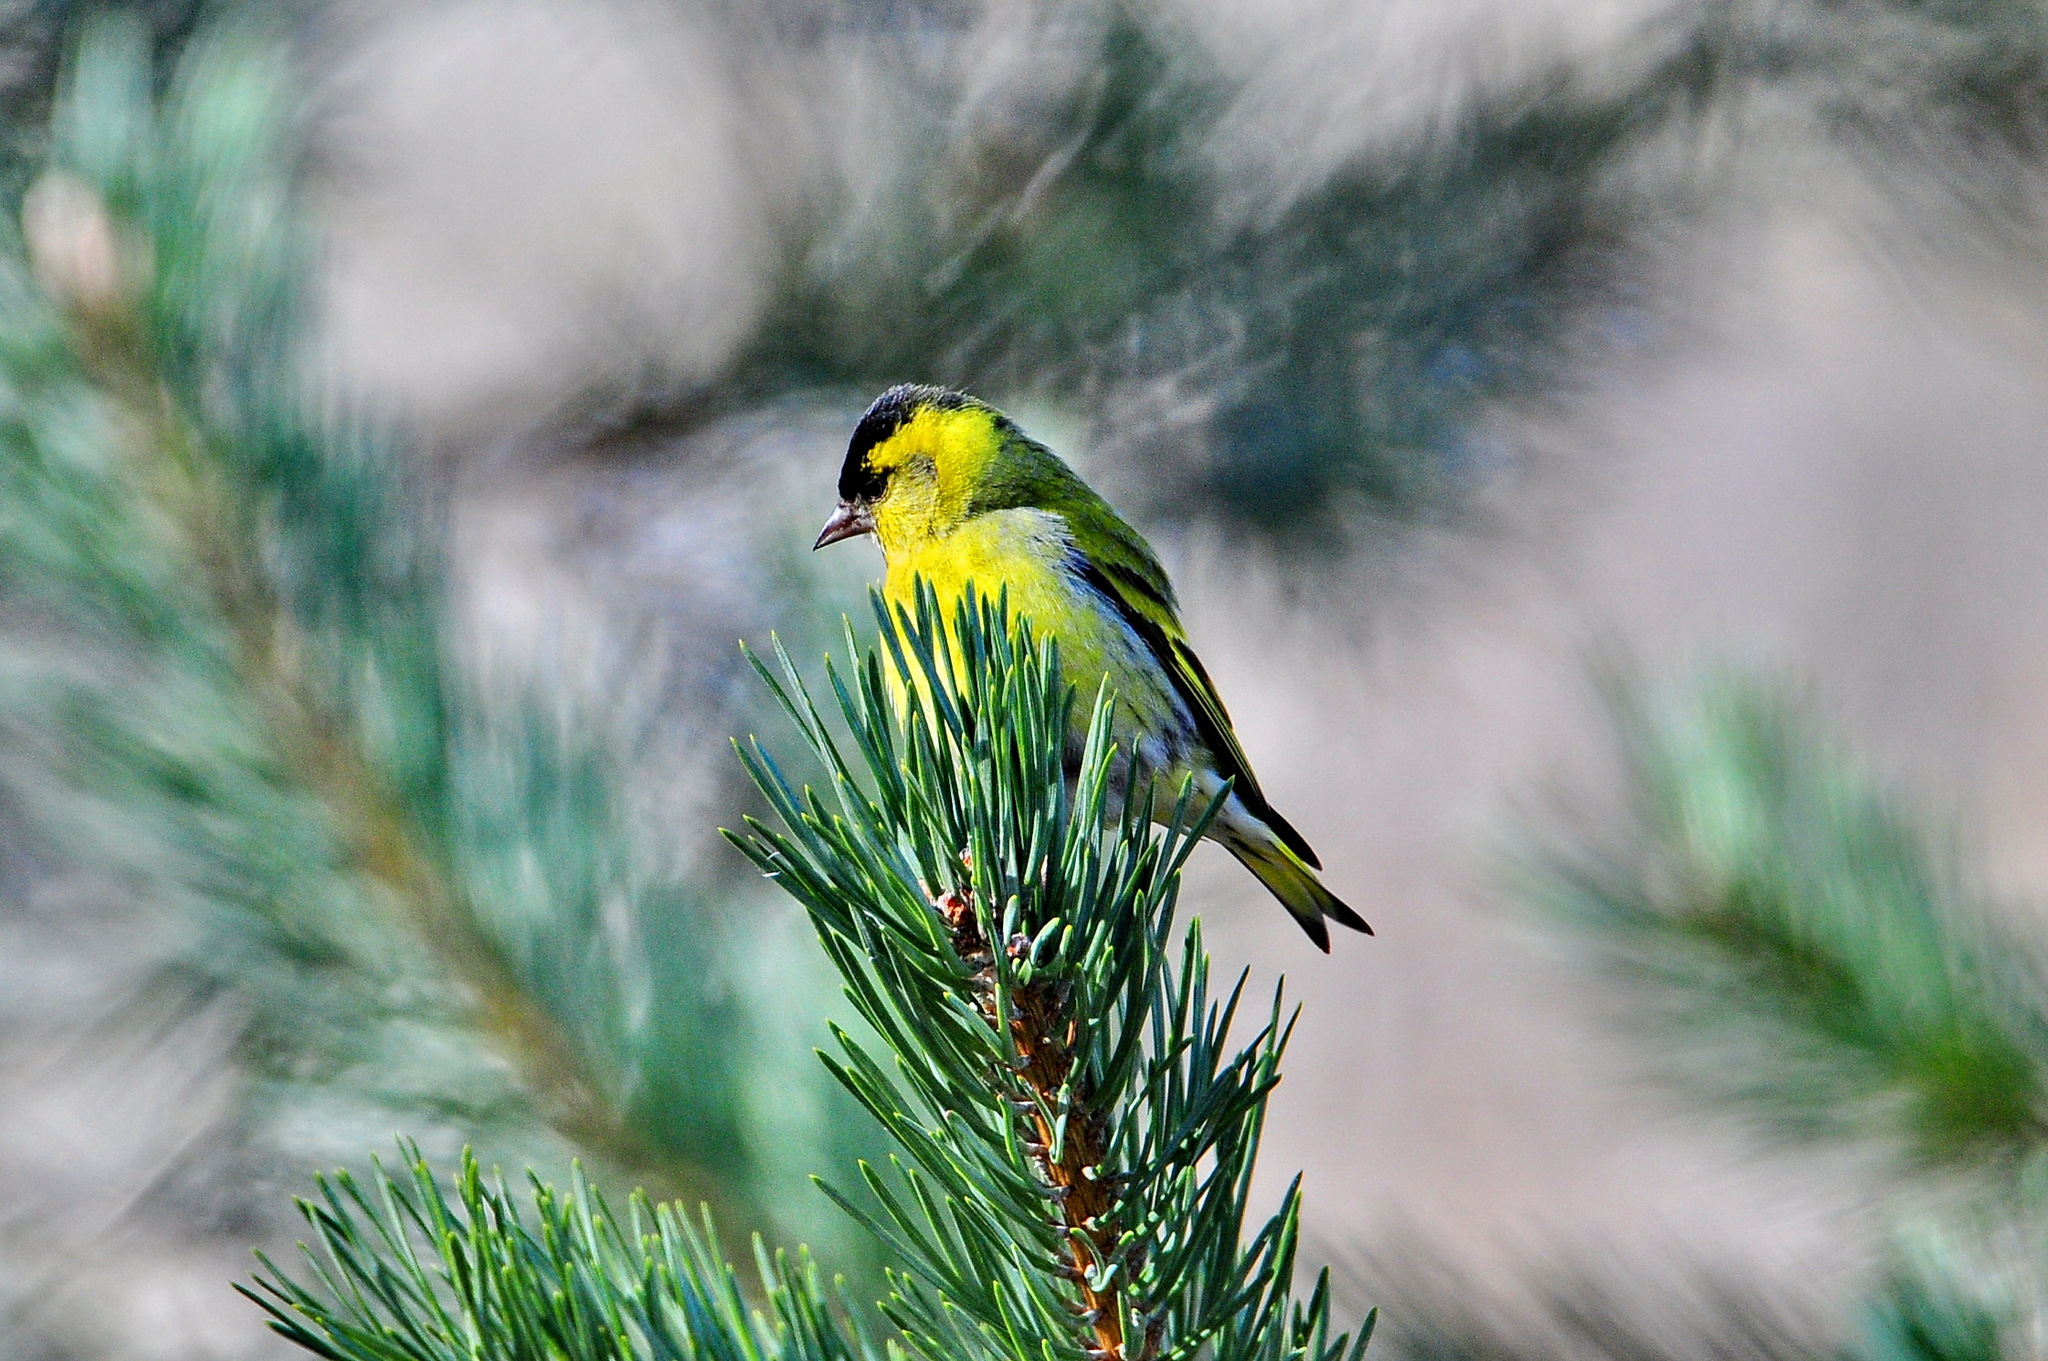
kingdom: Animalia
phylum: Chordata
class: Aves
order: Passeriformes
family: Fringillidae
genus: Spinus
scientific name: Spinus spinus
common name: Eurasian siskin
